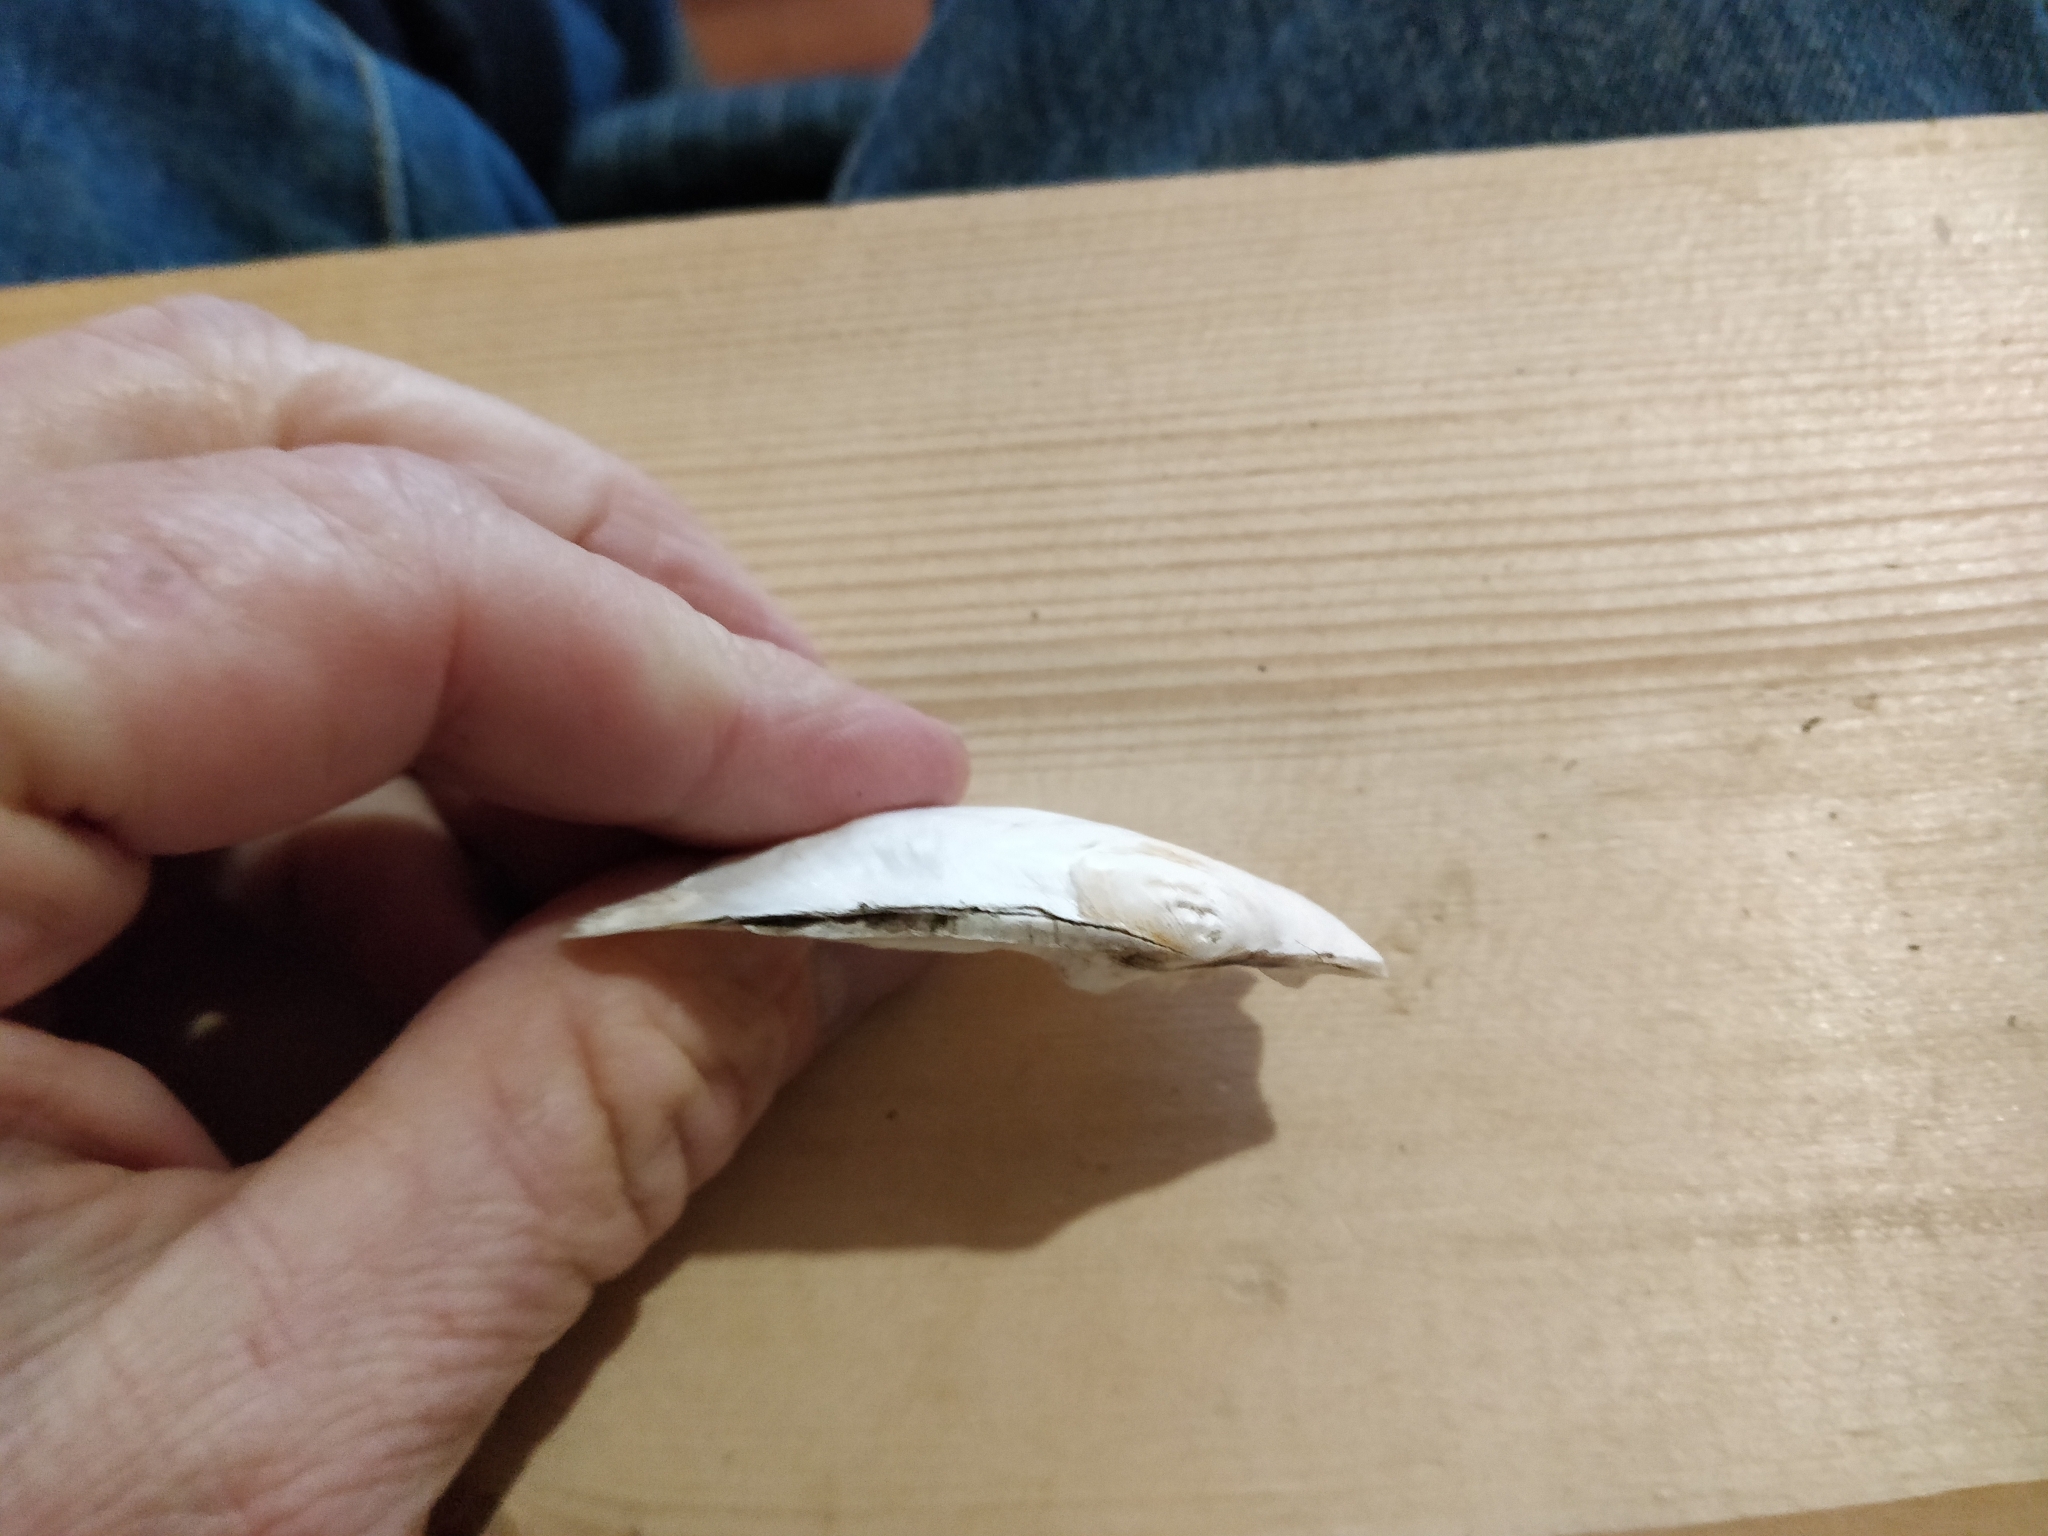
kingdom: Animalia
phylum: Mollusca
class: Bivalvia
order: Unionida
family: Unionidae
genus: Lasmigona
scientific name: Lasmigona complanata
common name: White heelsplitter
